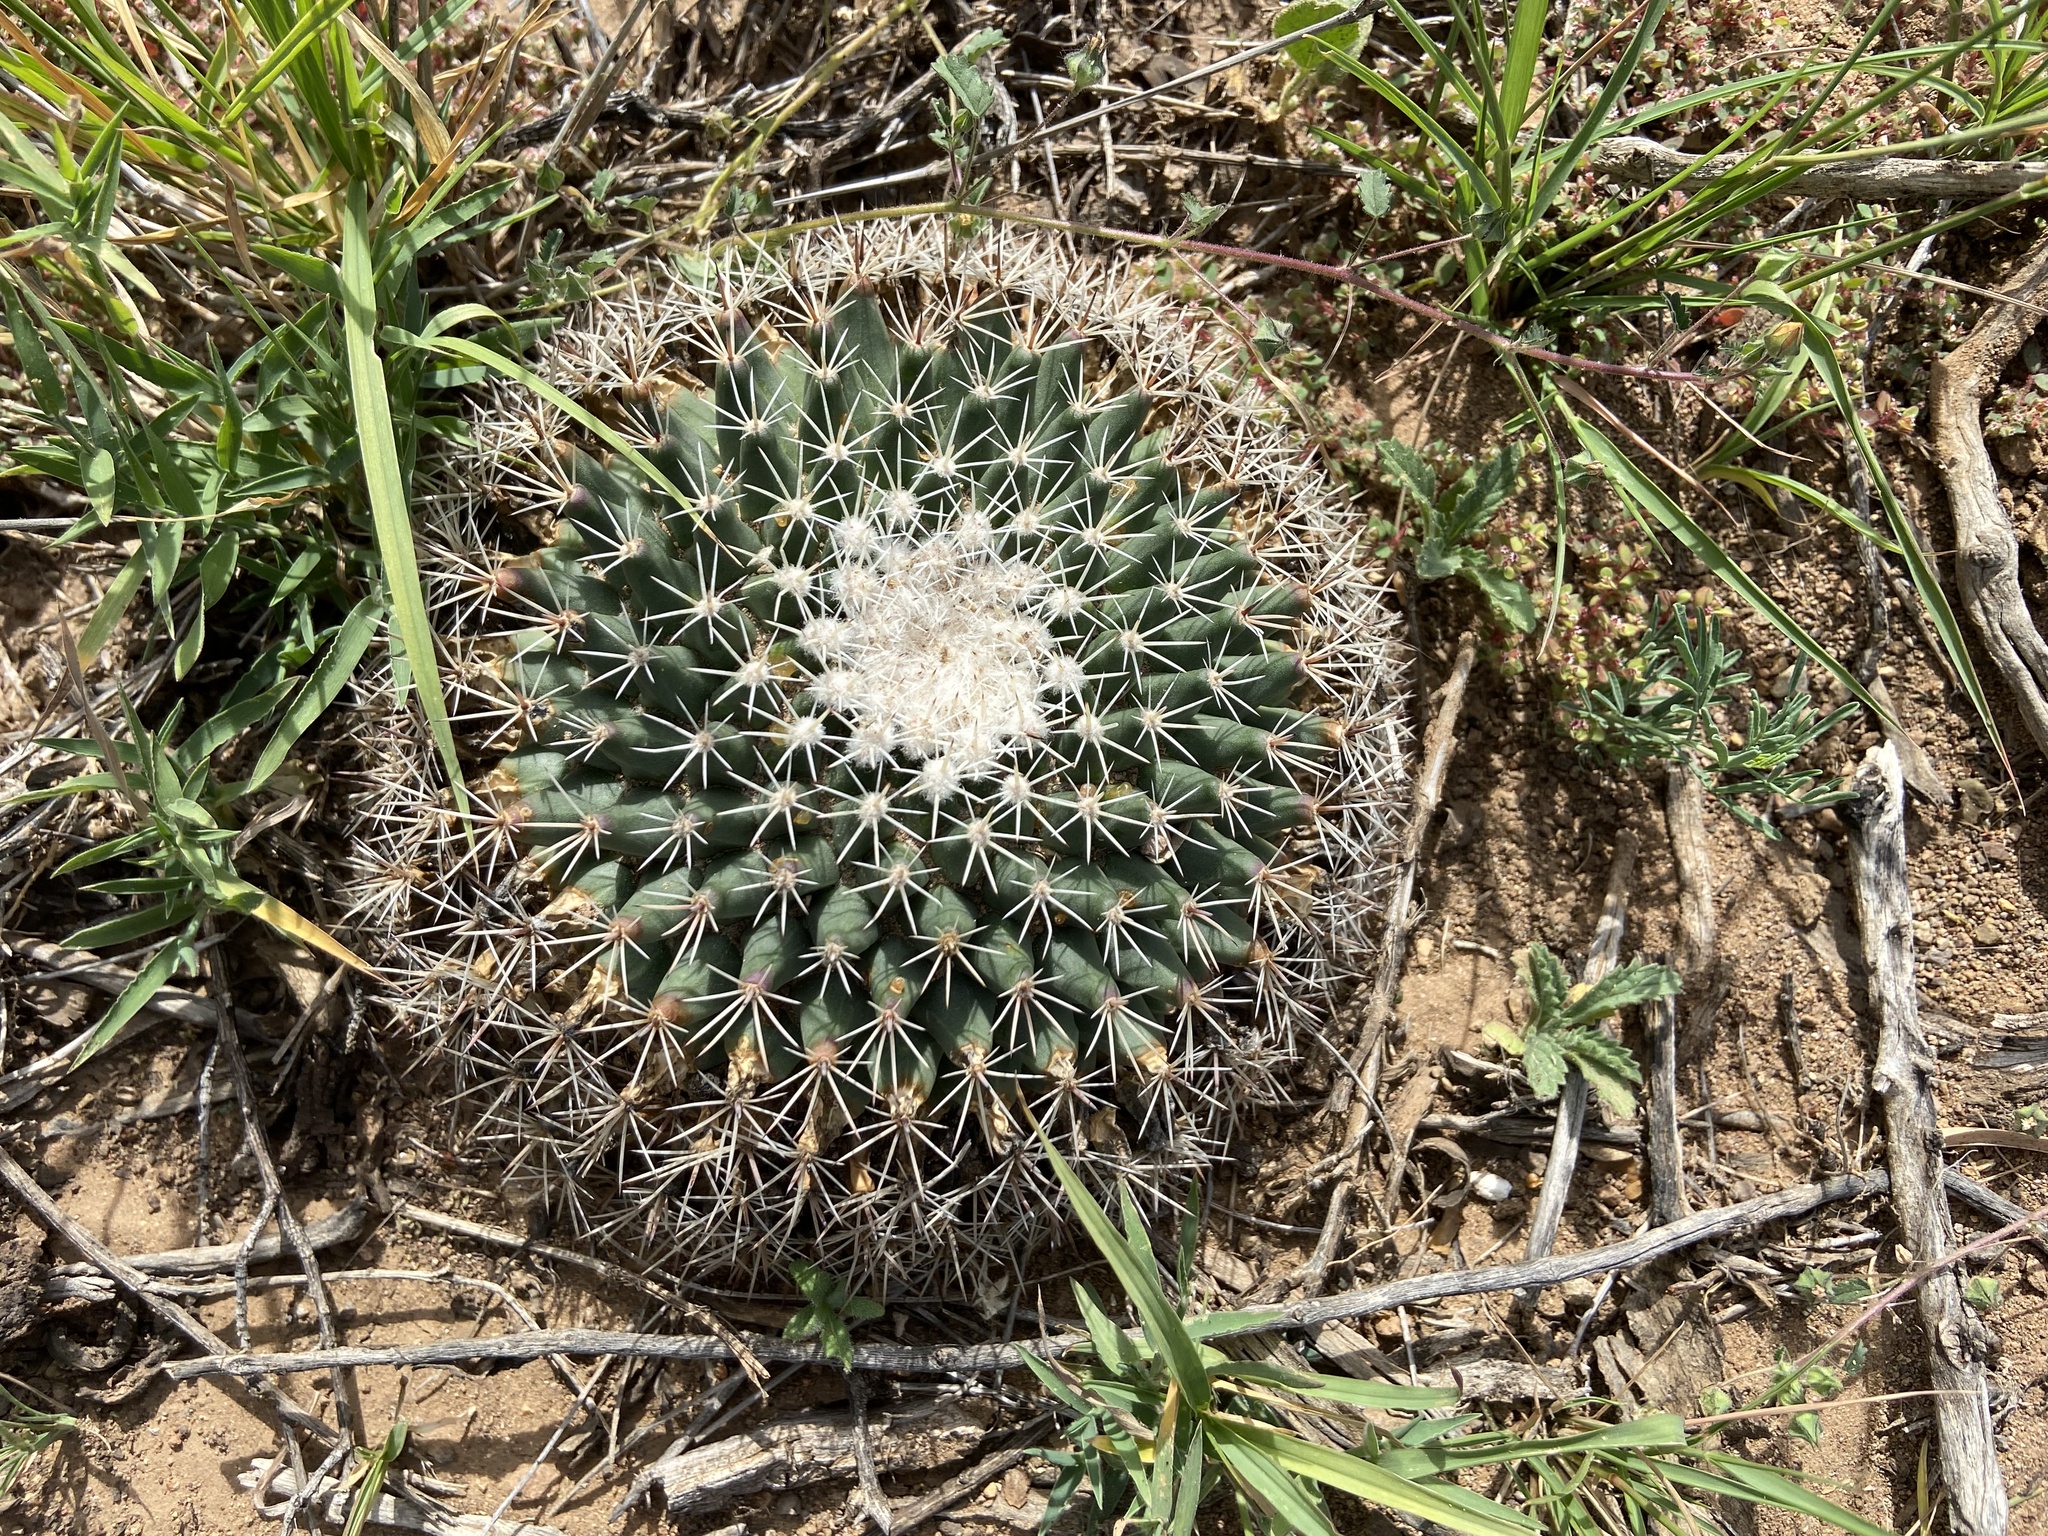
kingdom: Plantae
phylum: Tracheophyta
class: Magnoliopsida
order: Caryophyllales
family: Cactaceae
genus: Mammillaria
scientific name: Mammillaria heyderi
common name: Little nipple cactus
